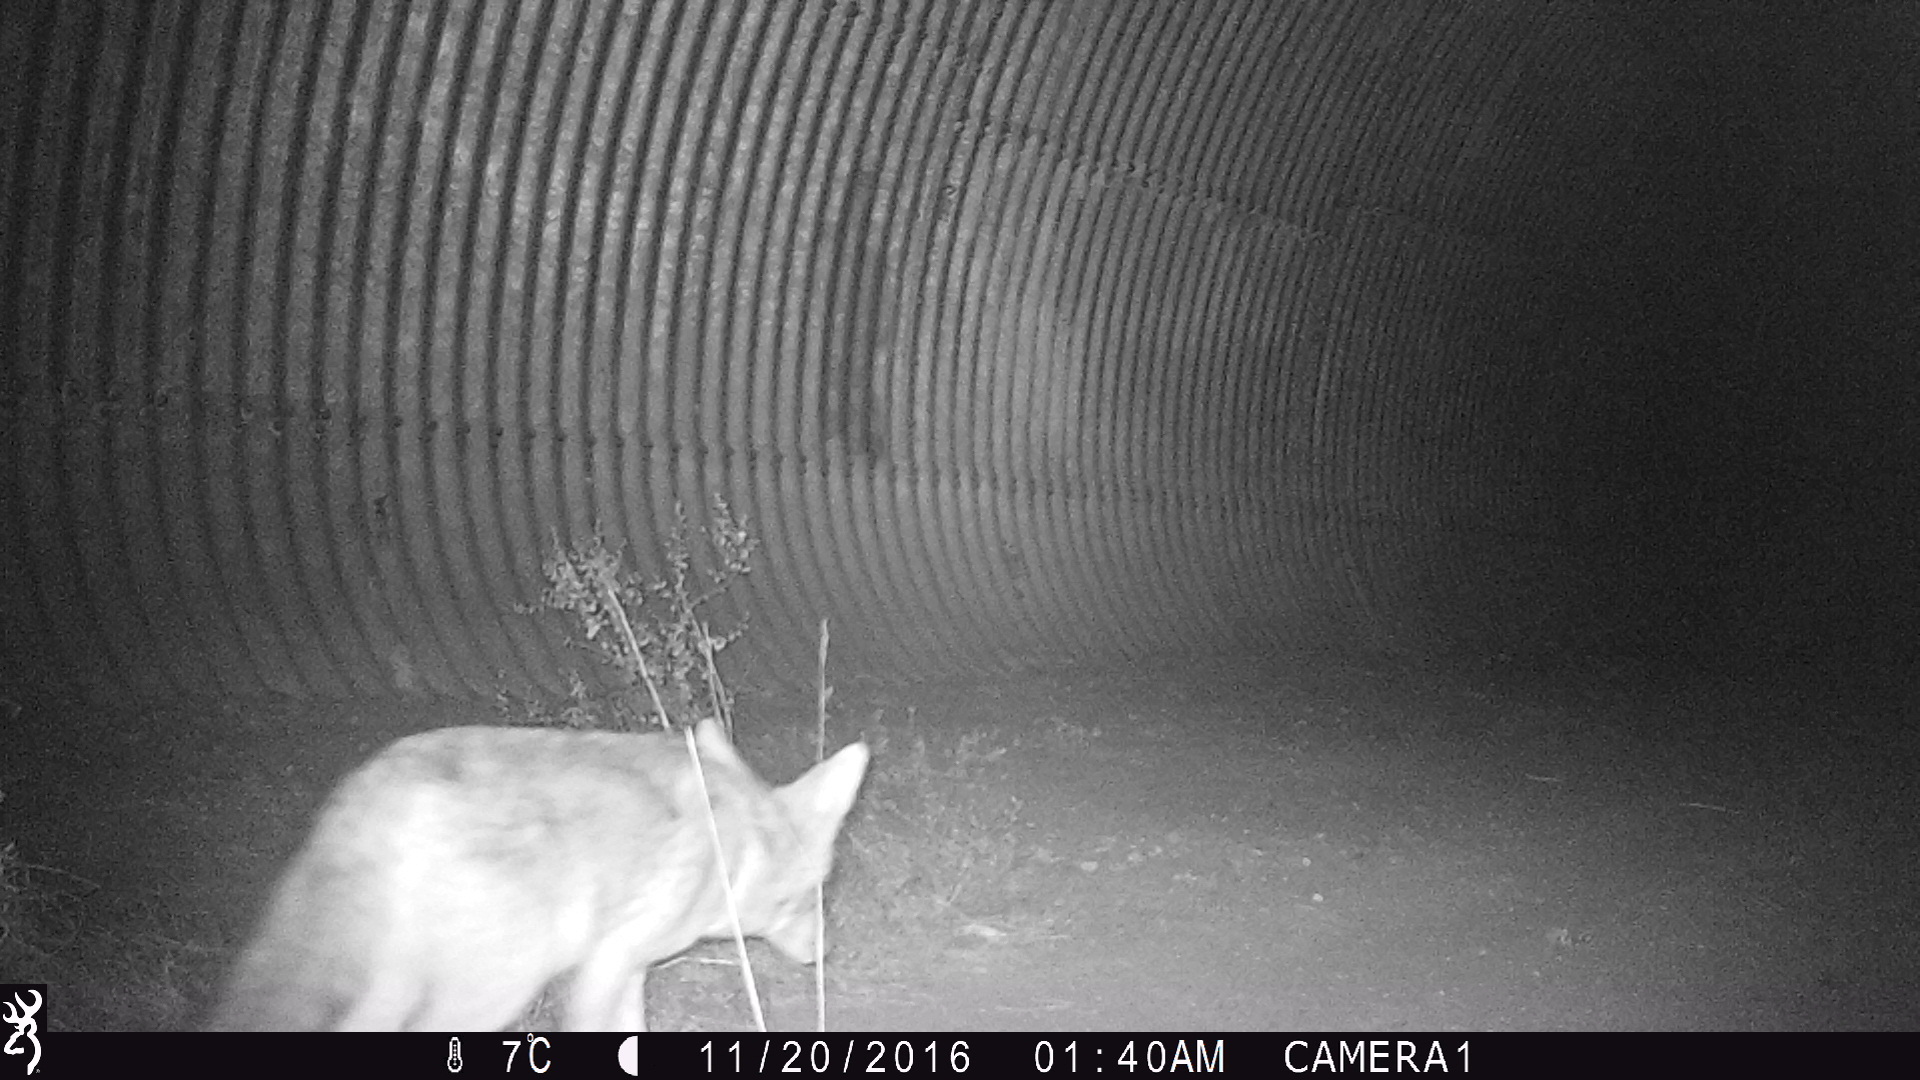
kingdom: Animalia
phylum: Chordata
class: Mammalia
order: Carnivora
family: Canidae
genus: Canis
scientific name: Canis latrans
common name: Coyote
